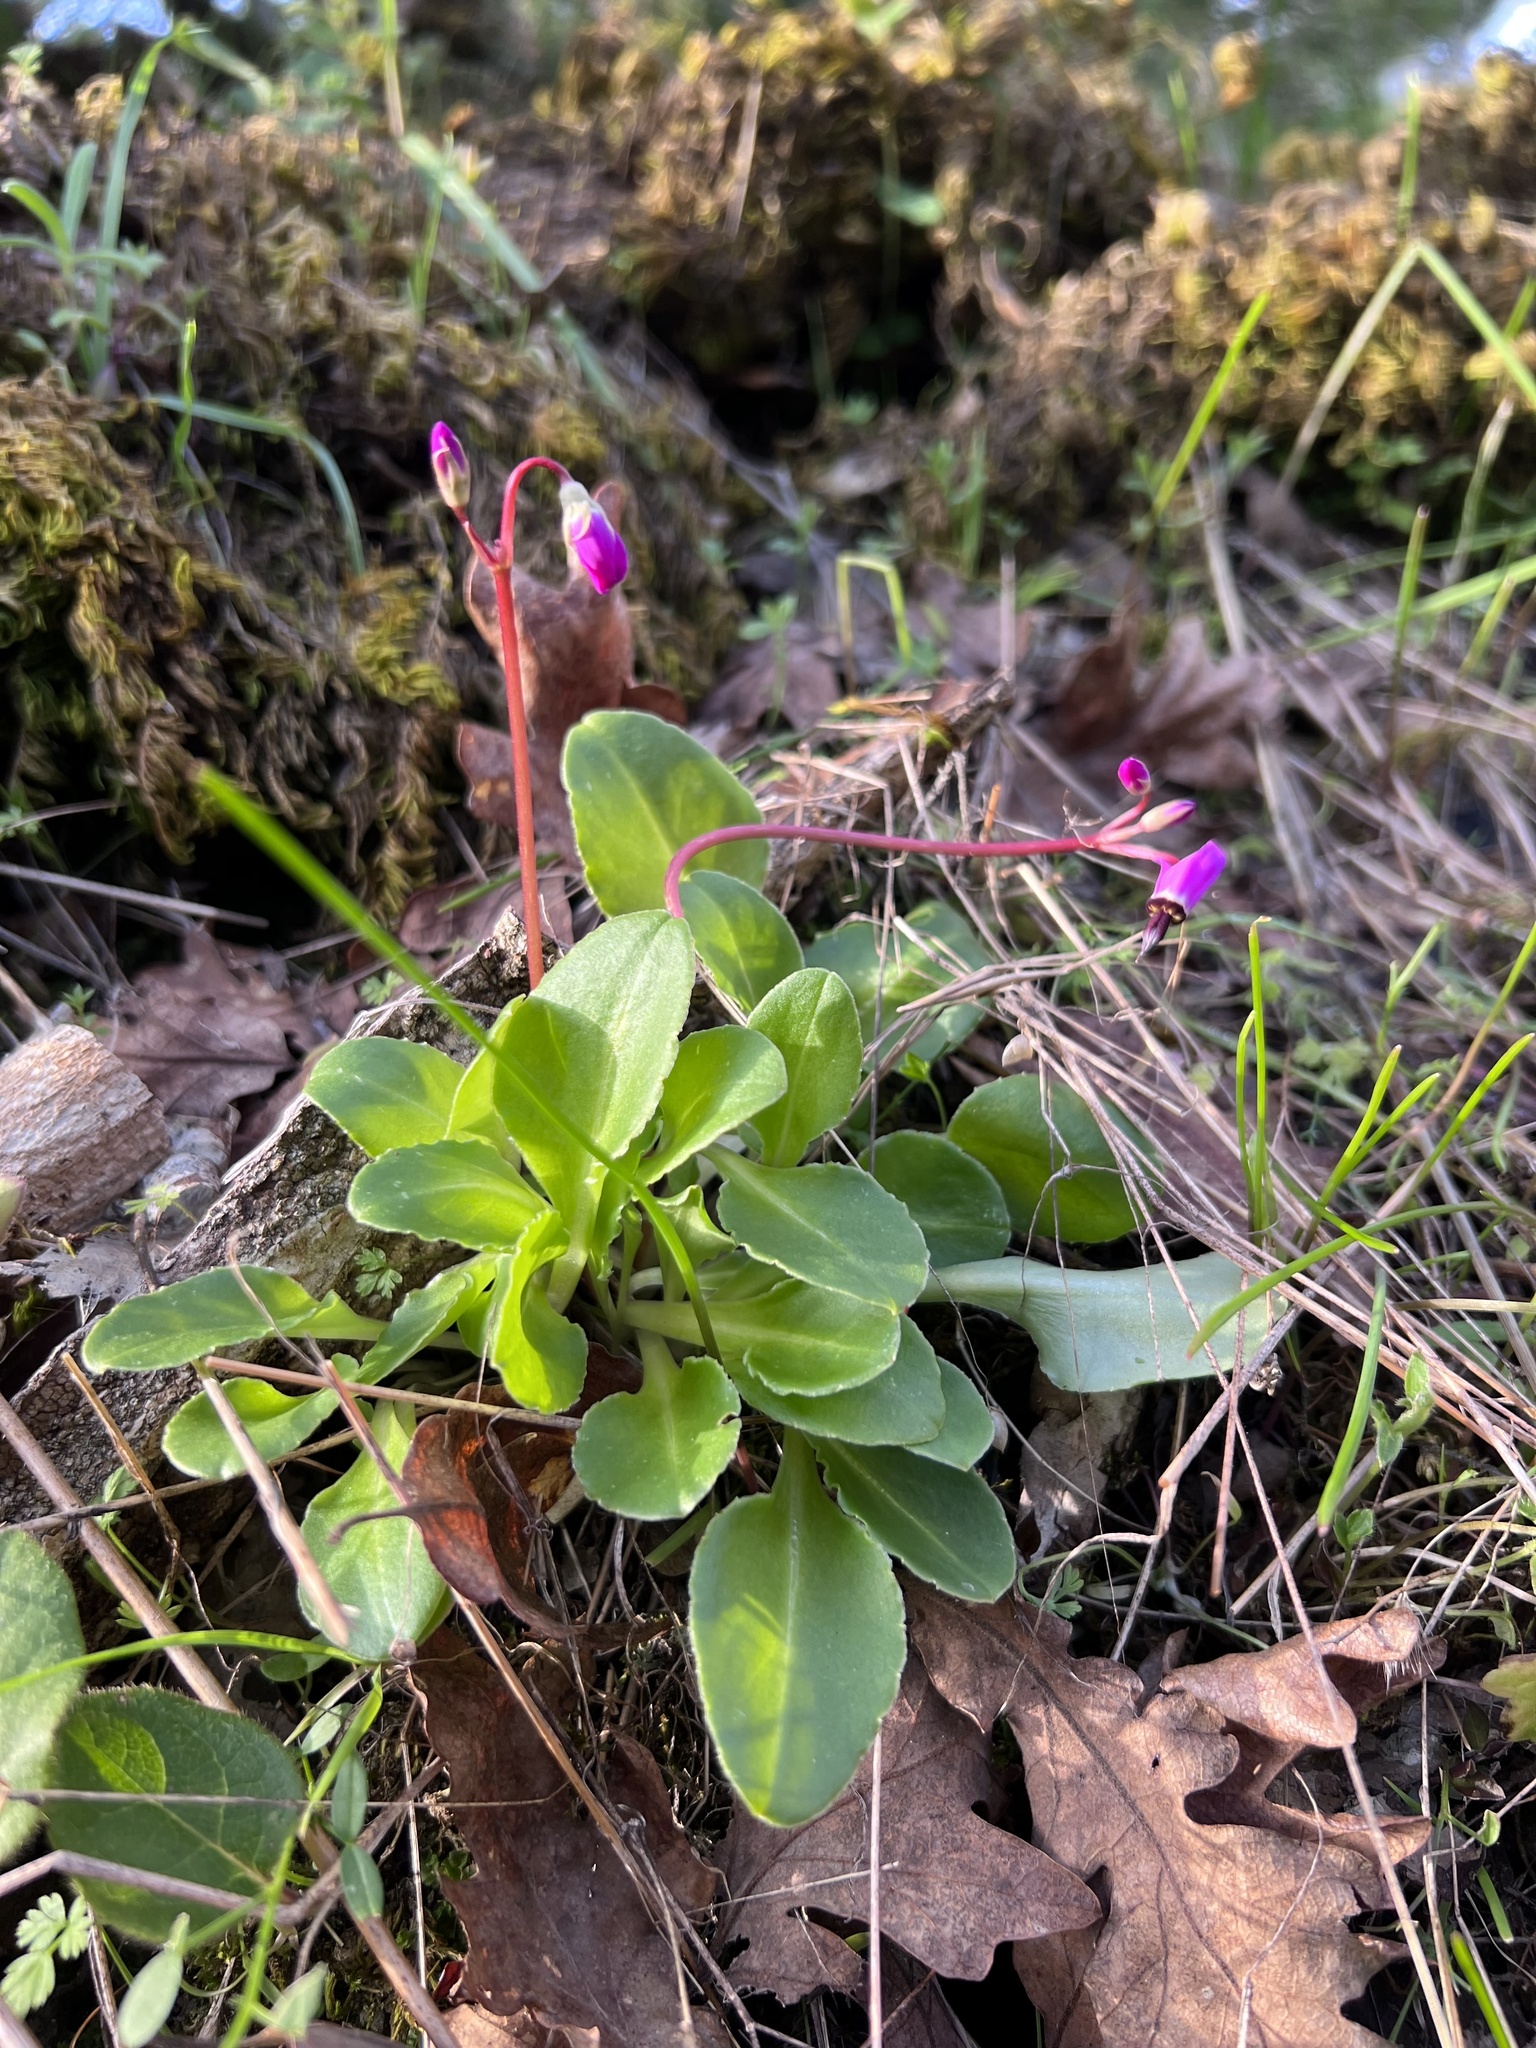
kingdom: Plantae
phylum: Tracheophyta
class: Magnoliopsida
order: Ericales
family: Primulaceae
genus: Dodecatheon
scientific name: Dodecatheon hendersonii
